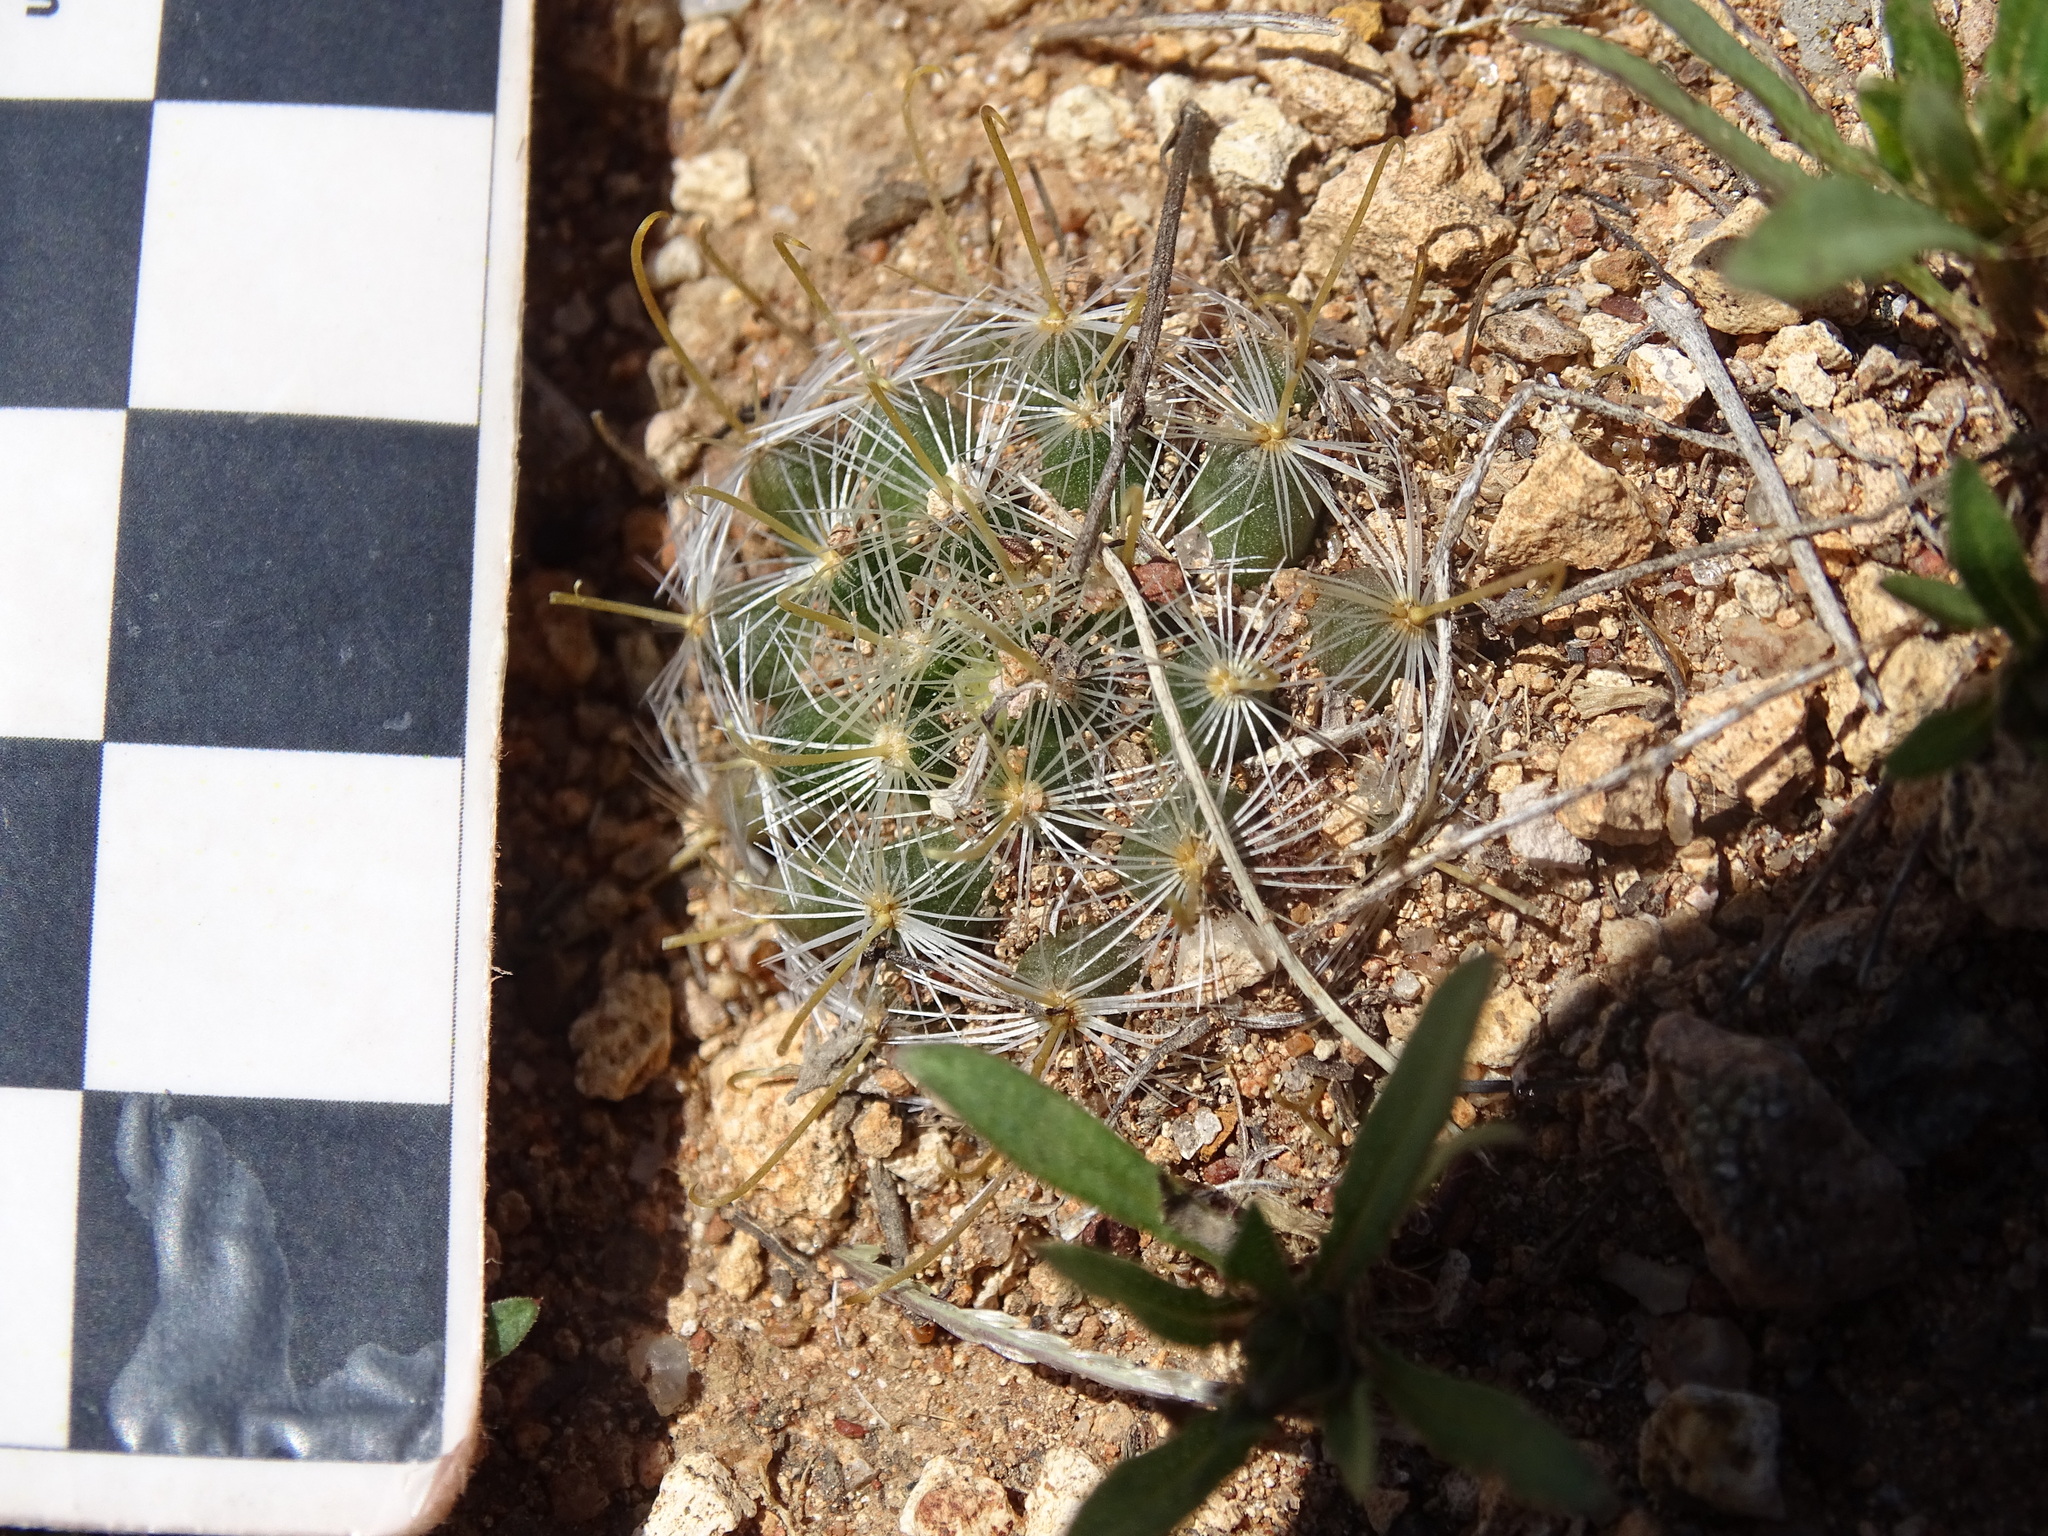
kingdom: Plantae
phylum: Tracheophyta
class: Magnoliopsida
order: Caryophyllales
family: Cactaceae
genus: Mammillaria
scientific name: Mammillaria jaliscana
